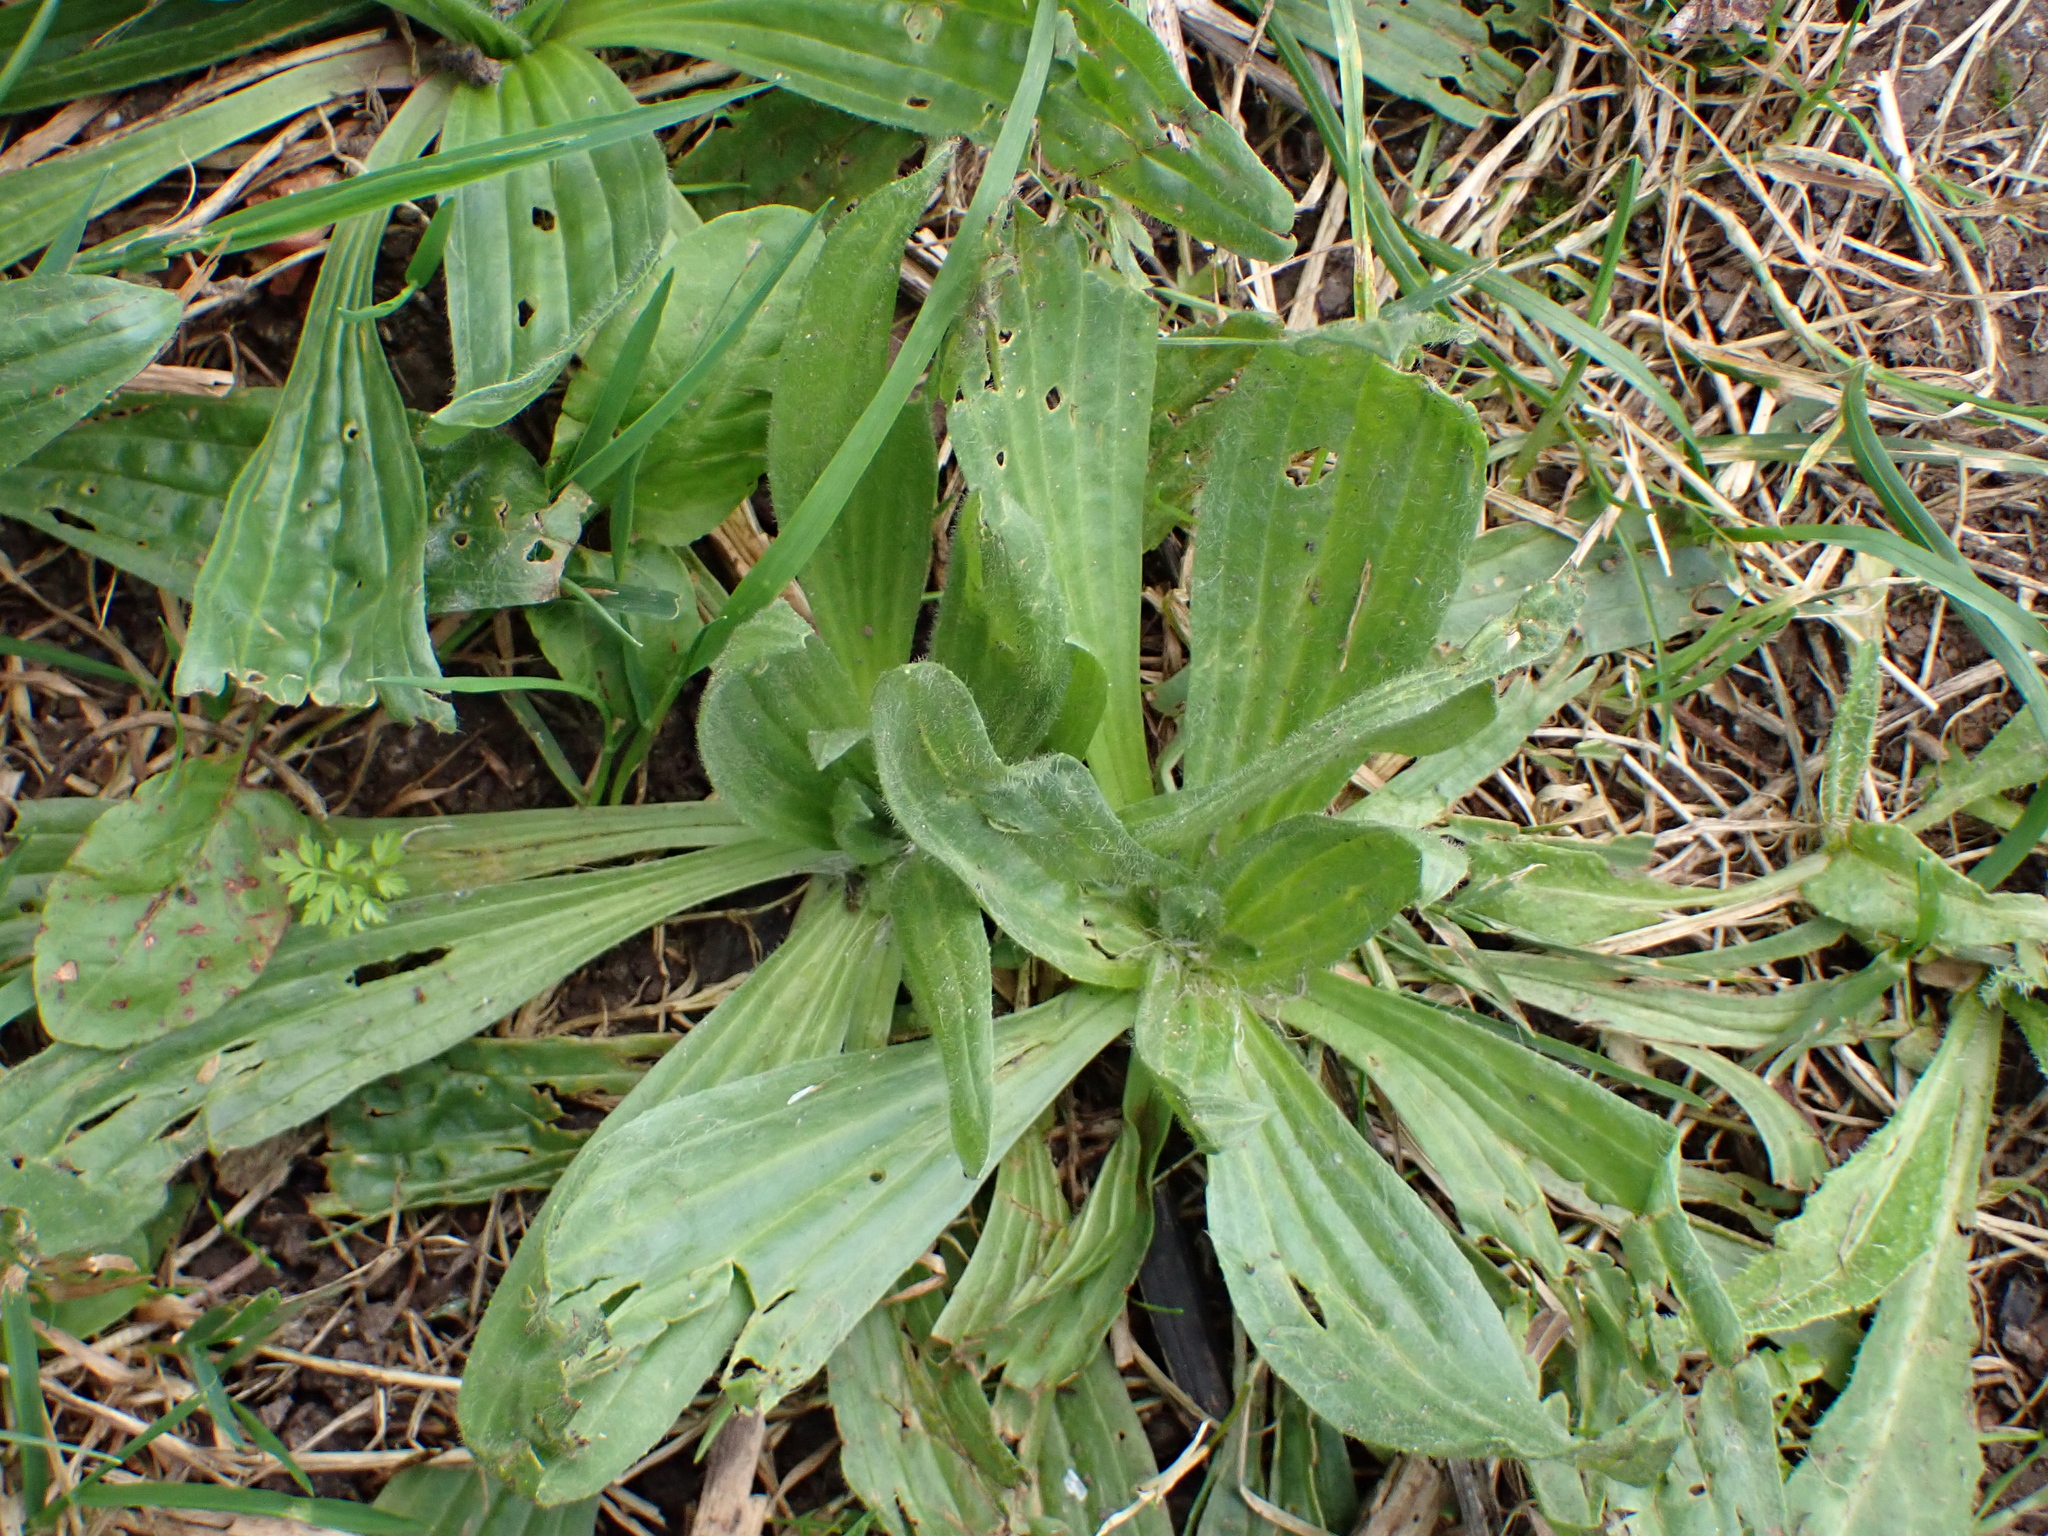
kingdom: Plantae
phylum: Tracheophyta
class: Magnoliopsida
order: Lamiales
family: Plantaginaceae
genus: Plantago
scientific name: Plantago lanceolata
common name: Ribwort plantain
